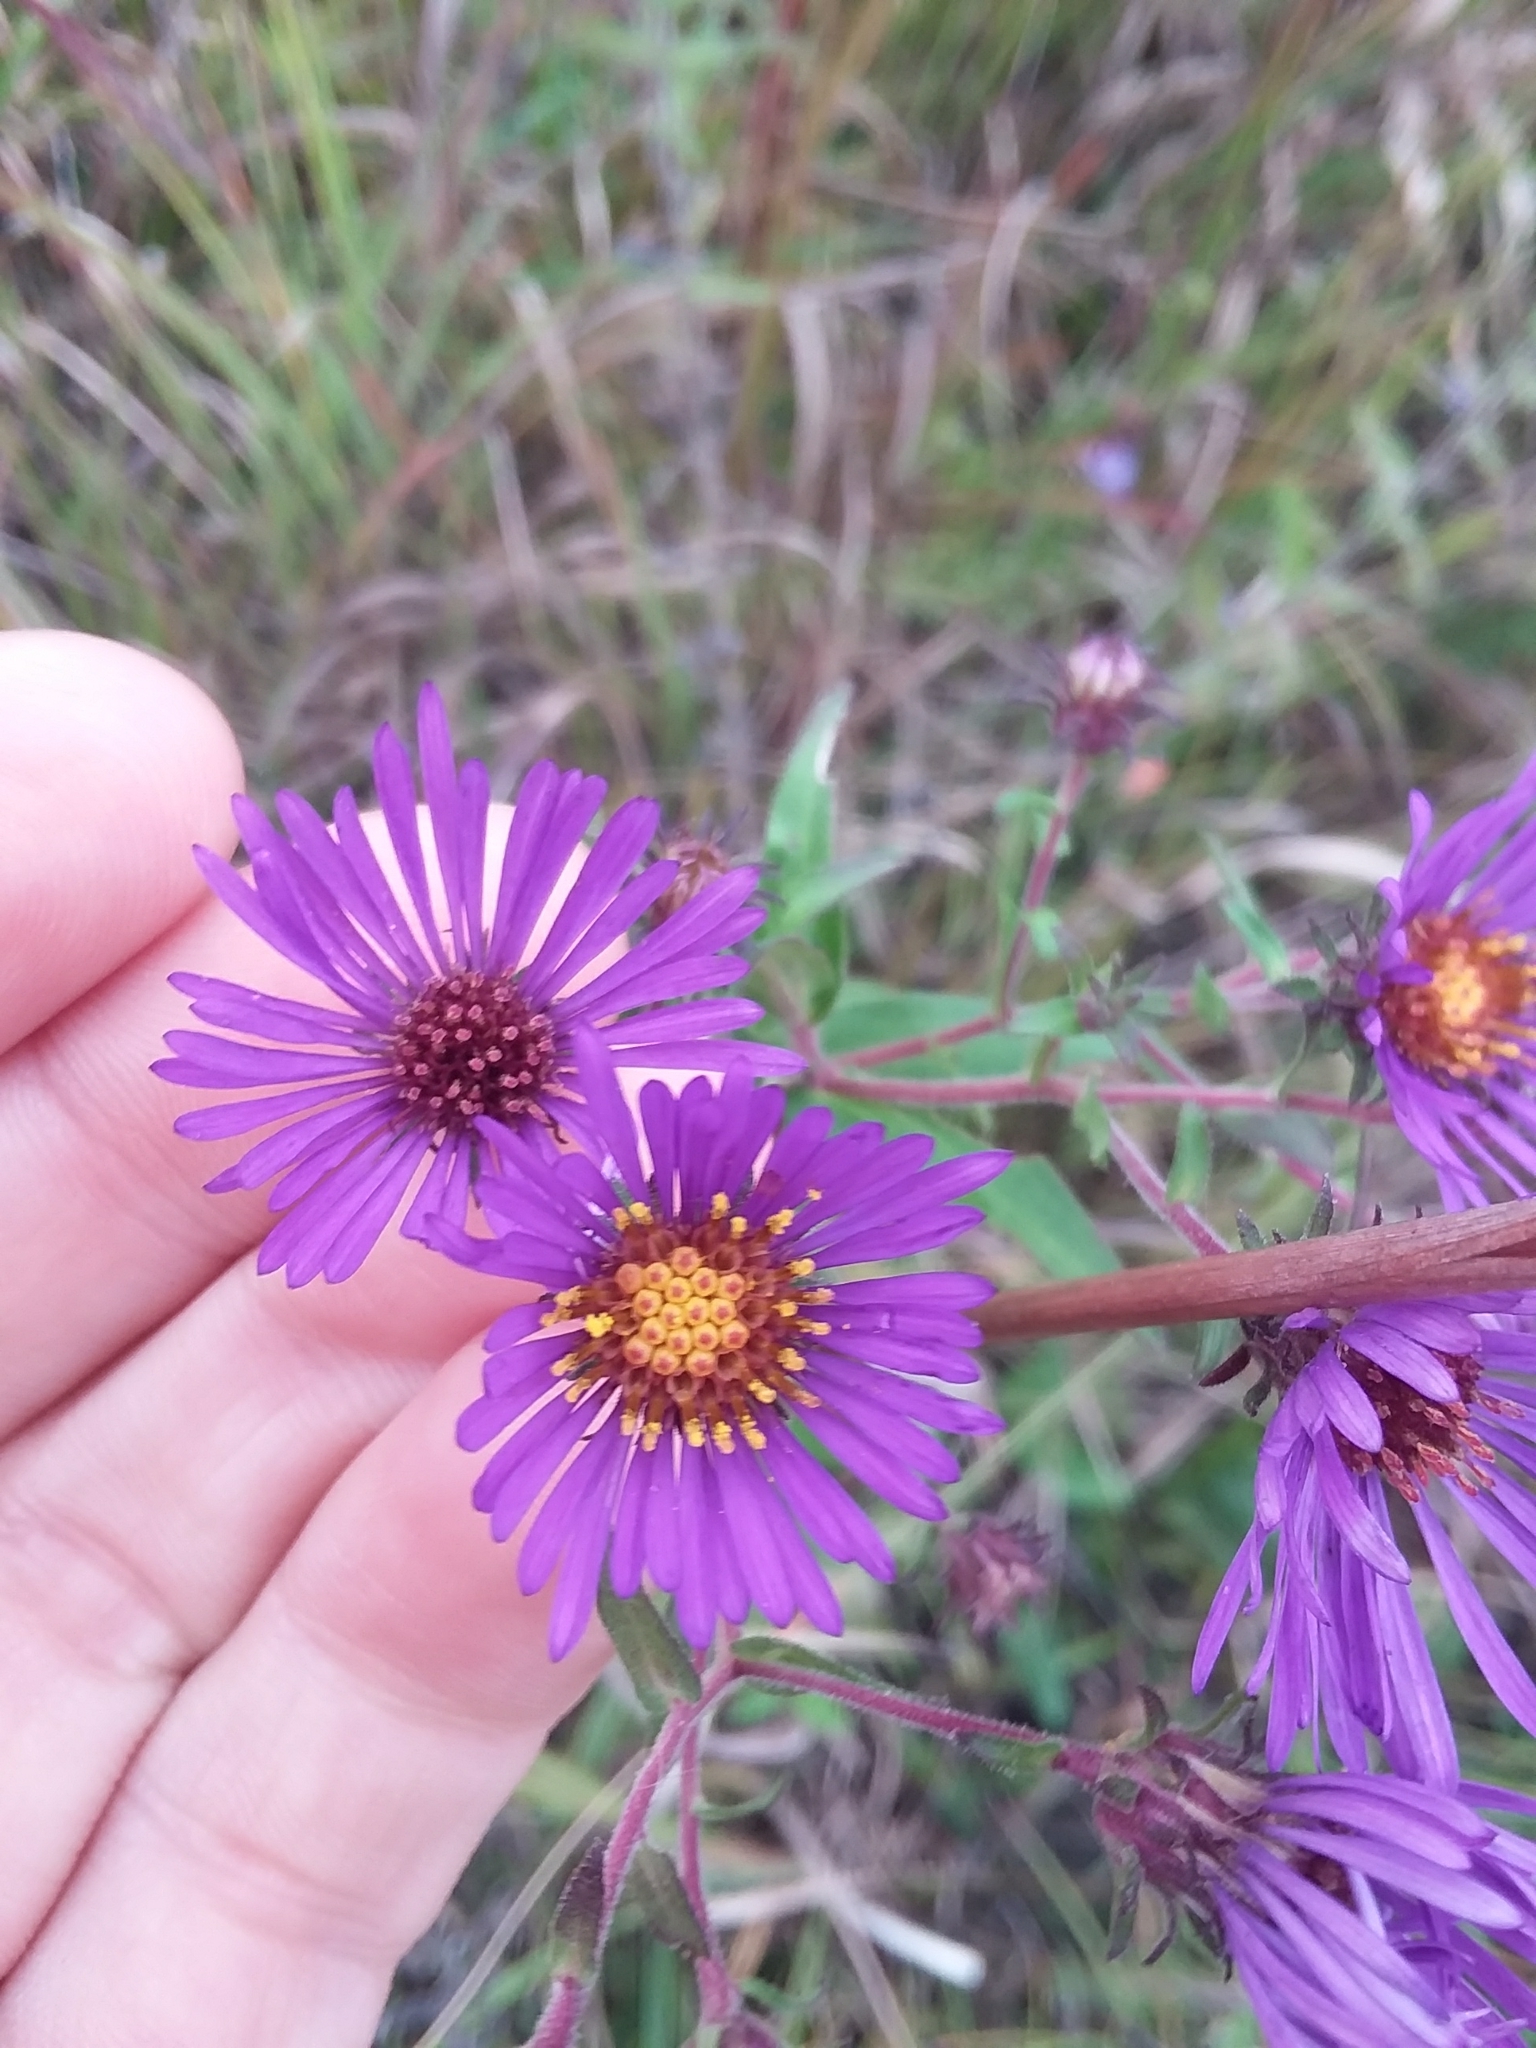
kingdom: Plantae
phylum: Tracheophyta
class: Magnoliopsida
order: Asterales
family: Asteraceae
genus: Symphyotrichum
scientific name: Symphyotrichum novae-angliae
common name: Michaelmas daisy
